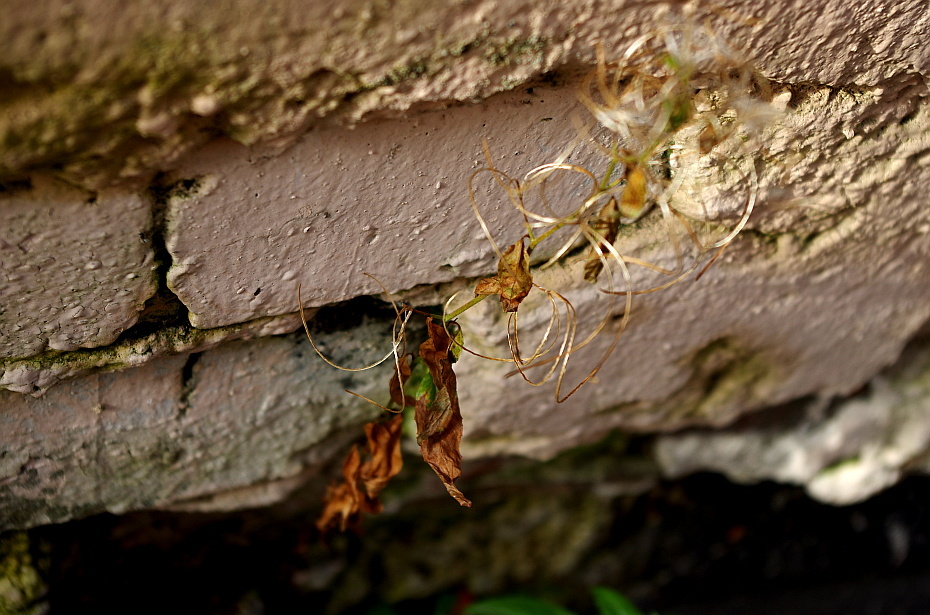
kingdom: Plantae
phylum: Tracheophyta
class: Magnoliopsida
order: Myrtales
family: Onagraceae
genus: Chamaenerion
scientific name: Chamaenerion angustifolium
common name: Fireweed
